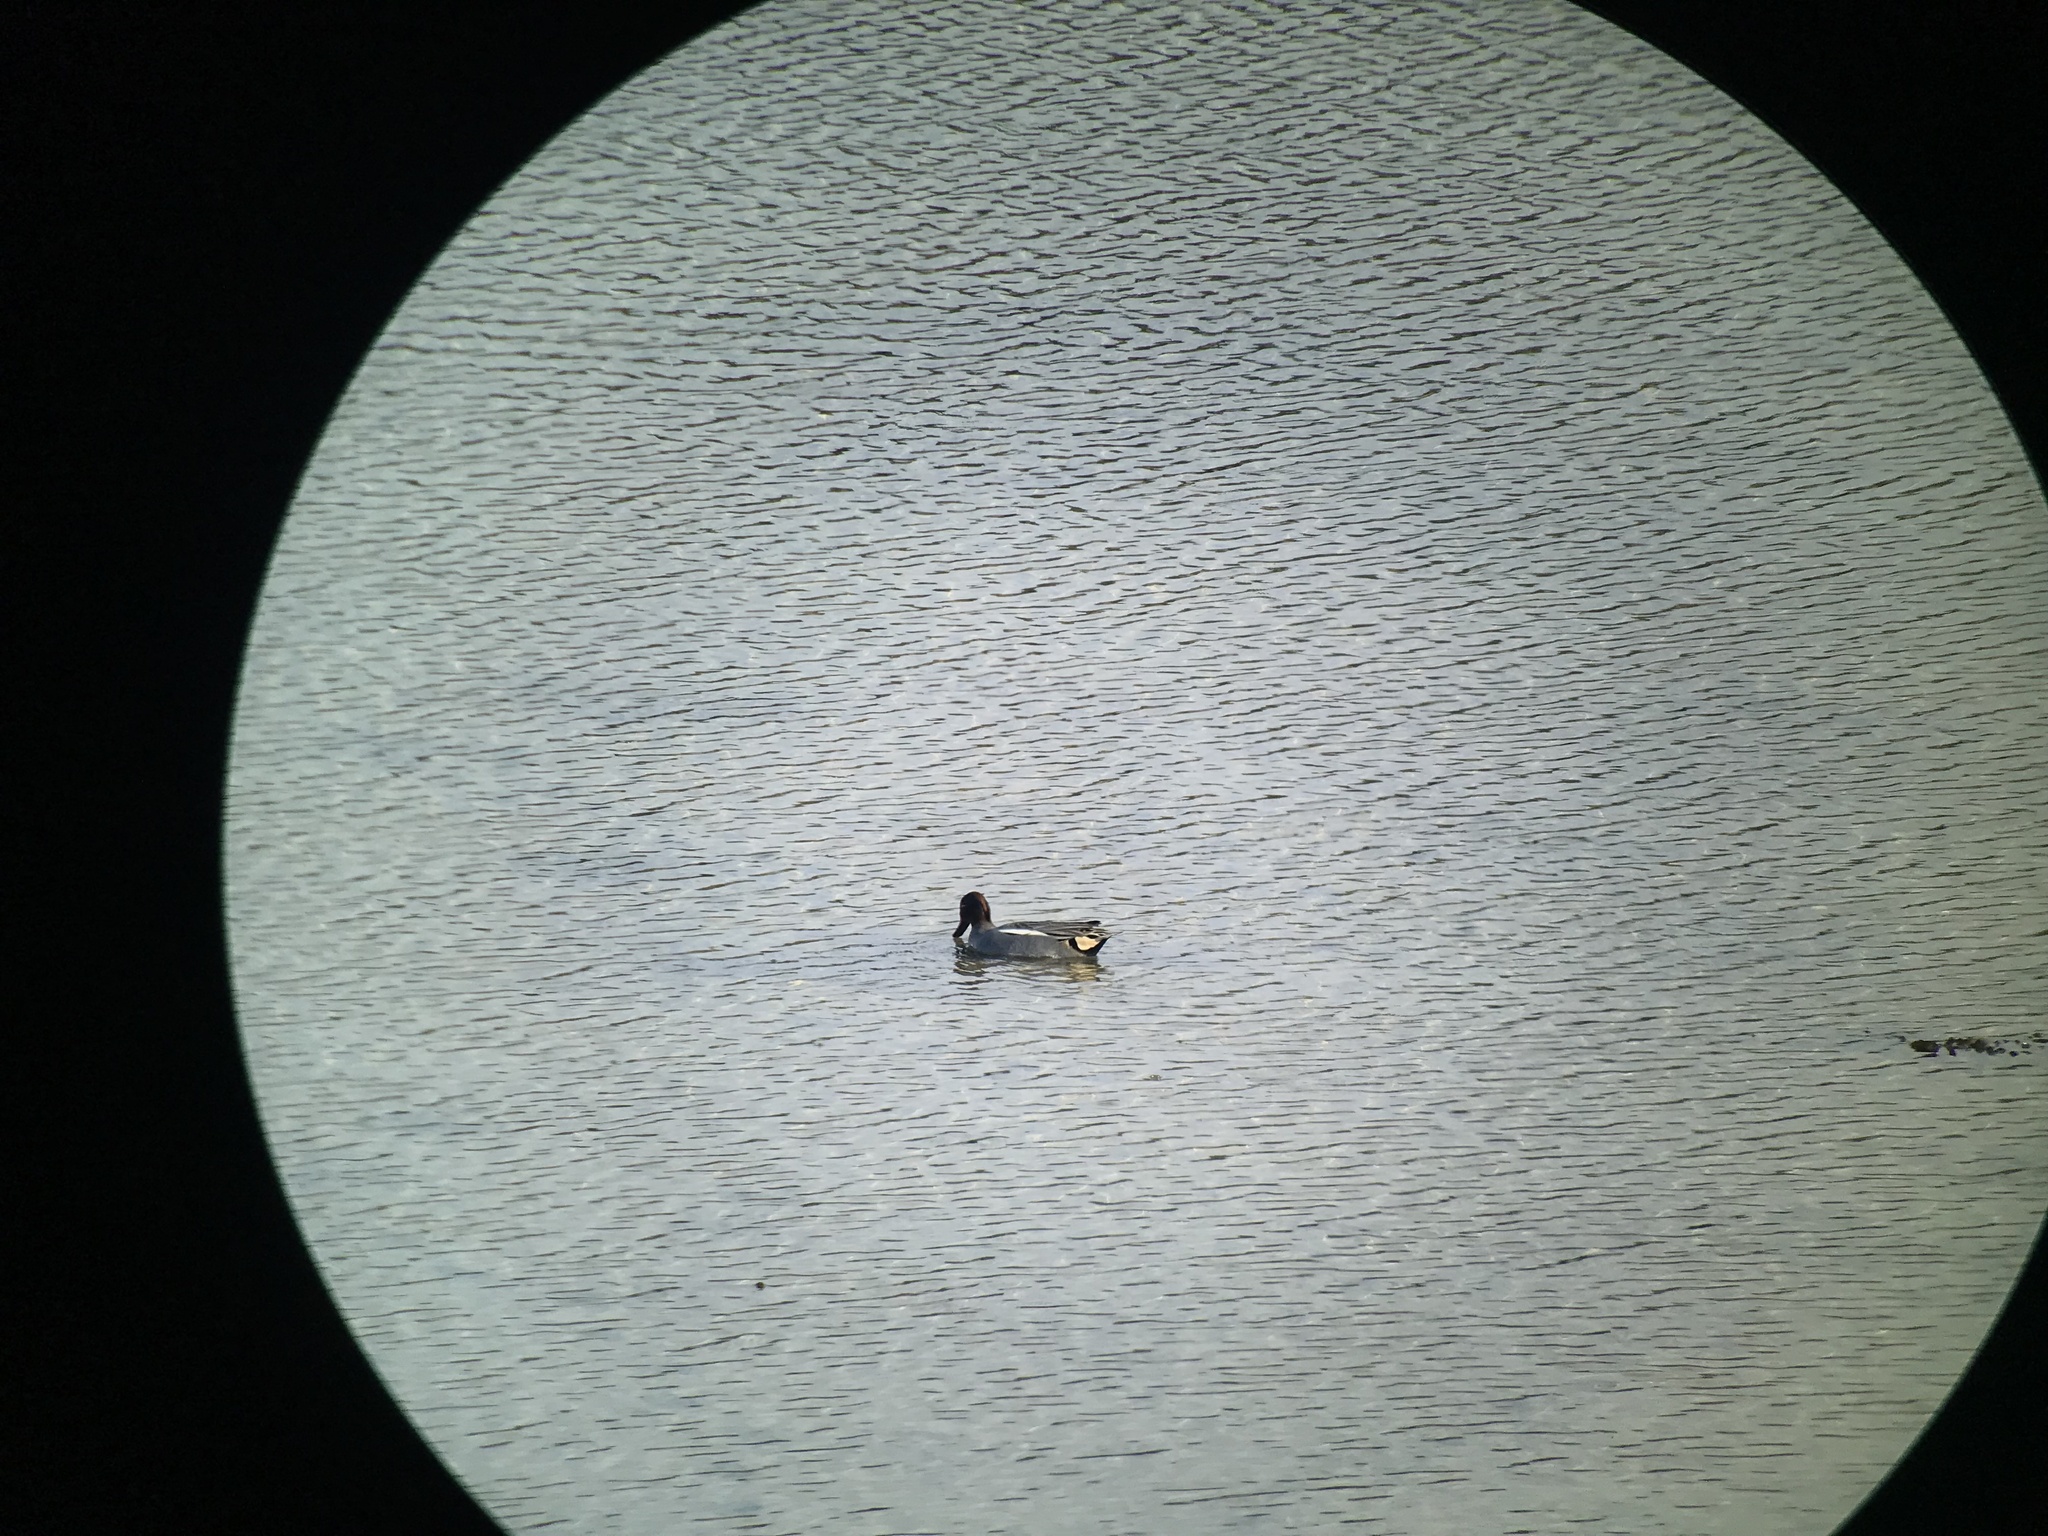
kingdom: Animalia
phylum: Chordata
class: Aves
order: Anseriformes
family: Anatidae
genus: Anas
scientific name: Anas crecca
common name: Eurasian teal
